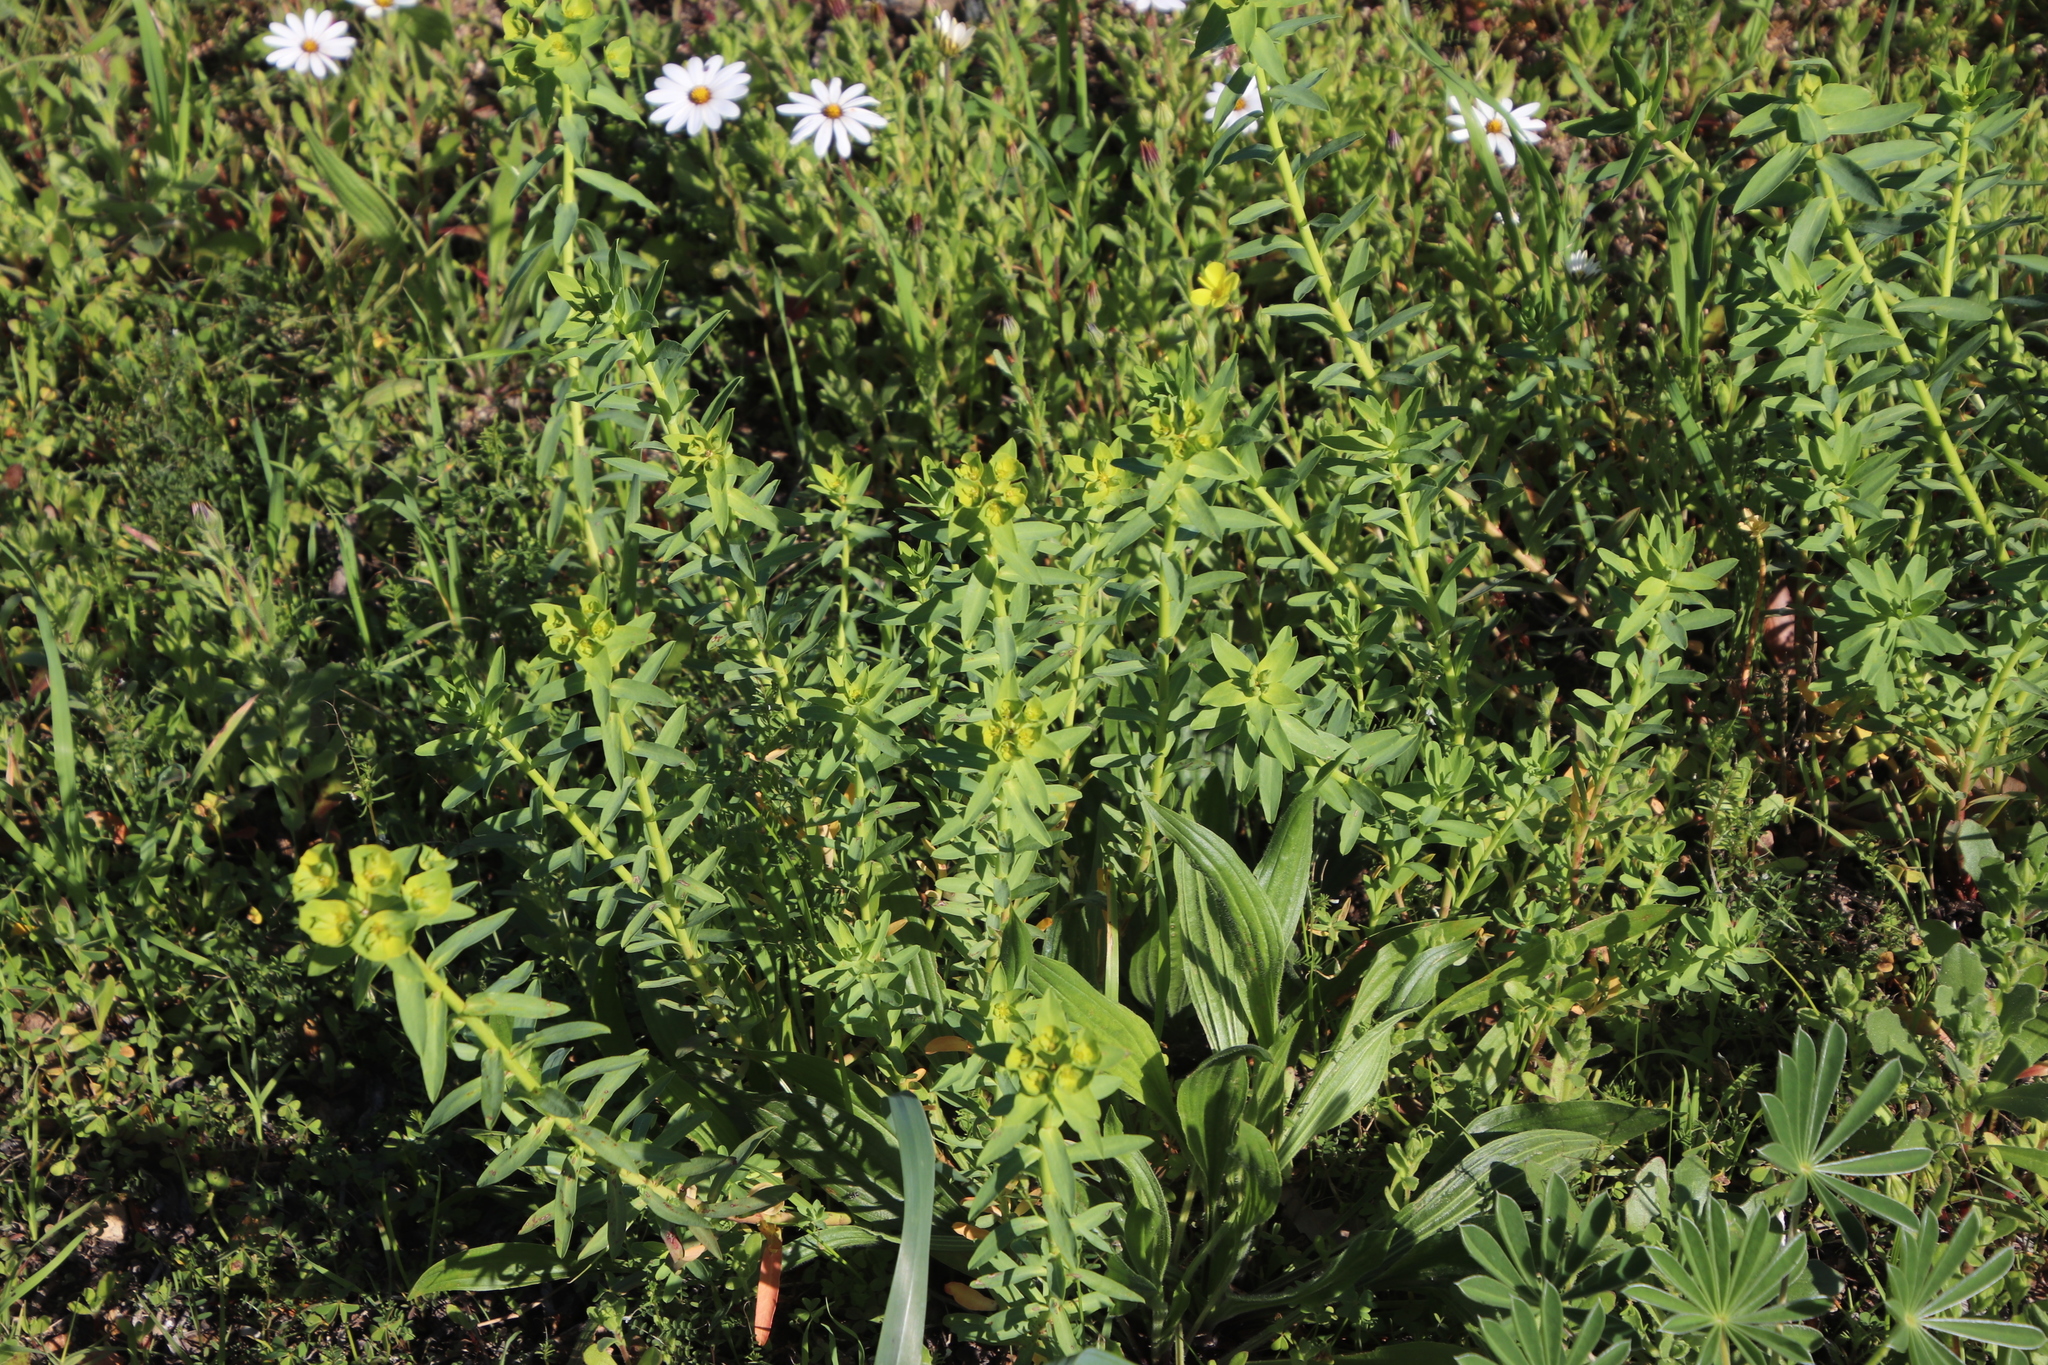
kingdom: Plantae
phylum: Tracheophyta
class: Magnoliopsida
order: Malpighiales
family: Euphorbiaceae
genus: Euphorbia
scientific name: Euphorbia terracina
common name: Geraldton carnation weed
